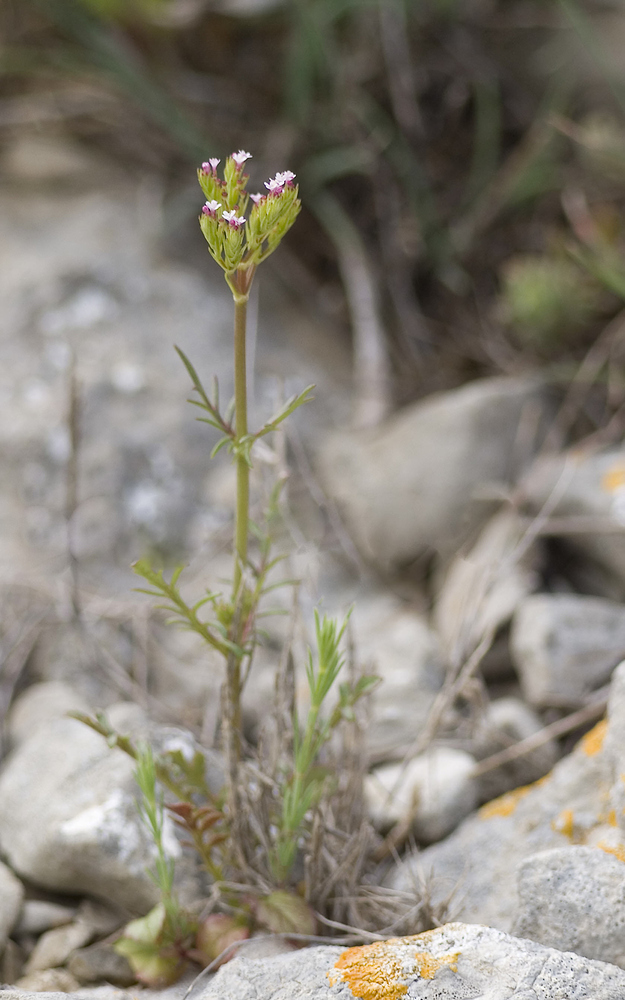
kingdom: Plantae
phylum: Tracheophyta
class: Magnoliopsida
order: Dipsacales
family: Caprifoliaceae
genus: Centranthus
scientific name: Centranthus calcitrapae
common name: Annual valerian
